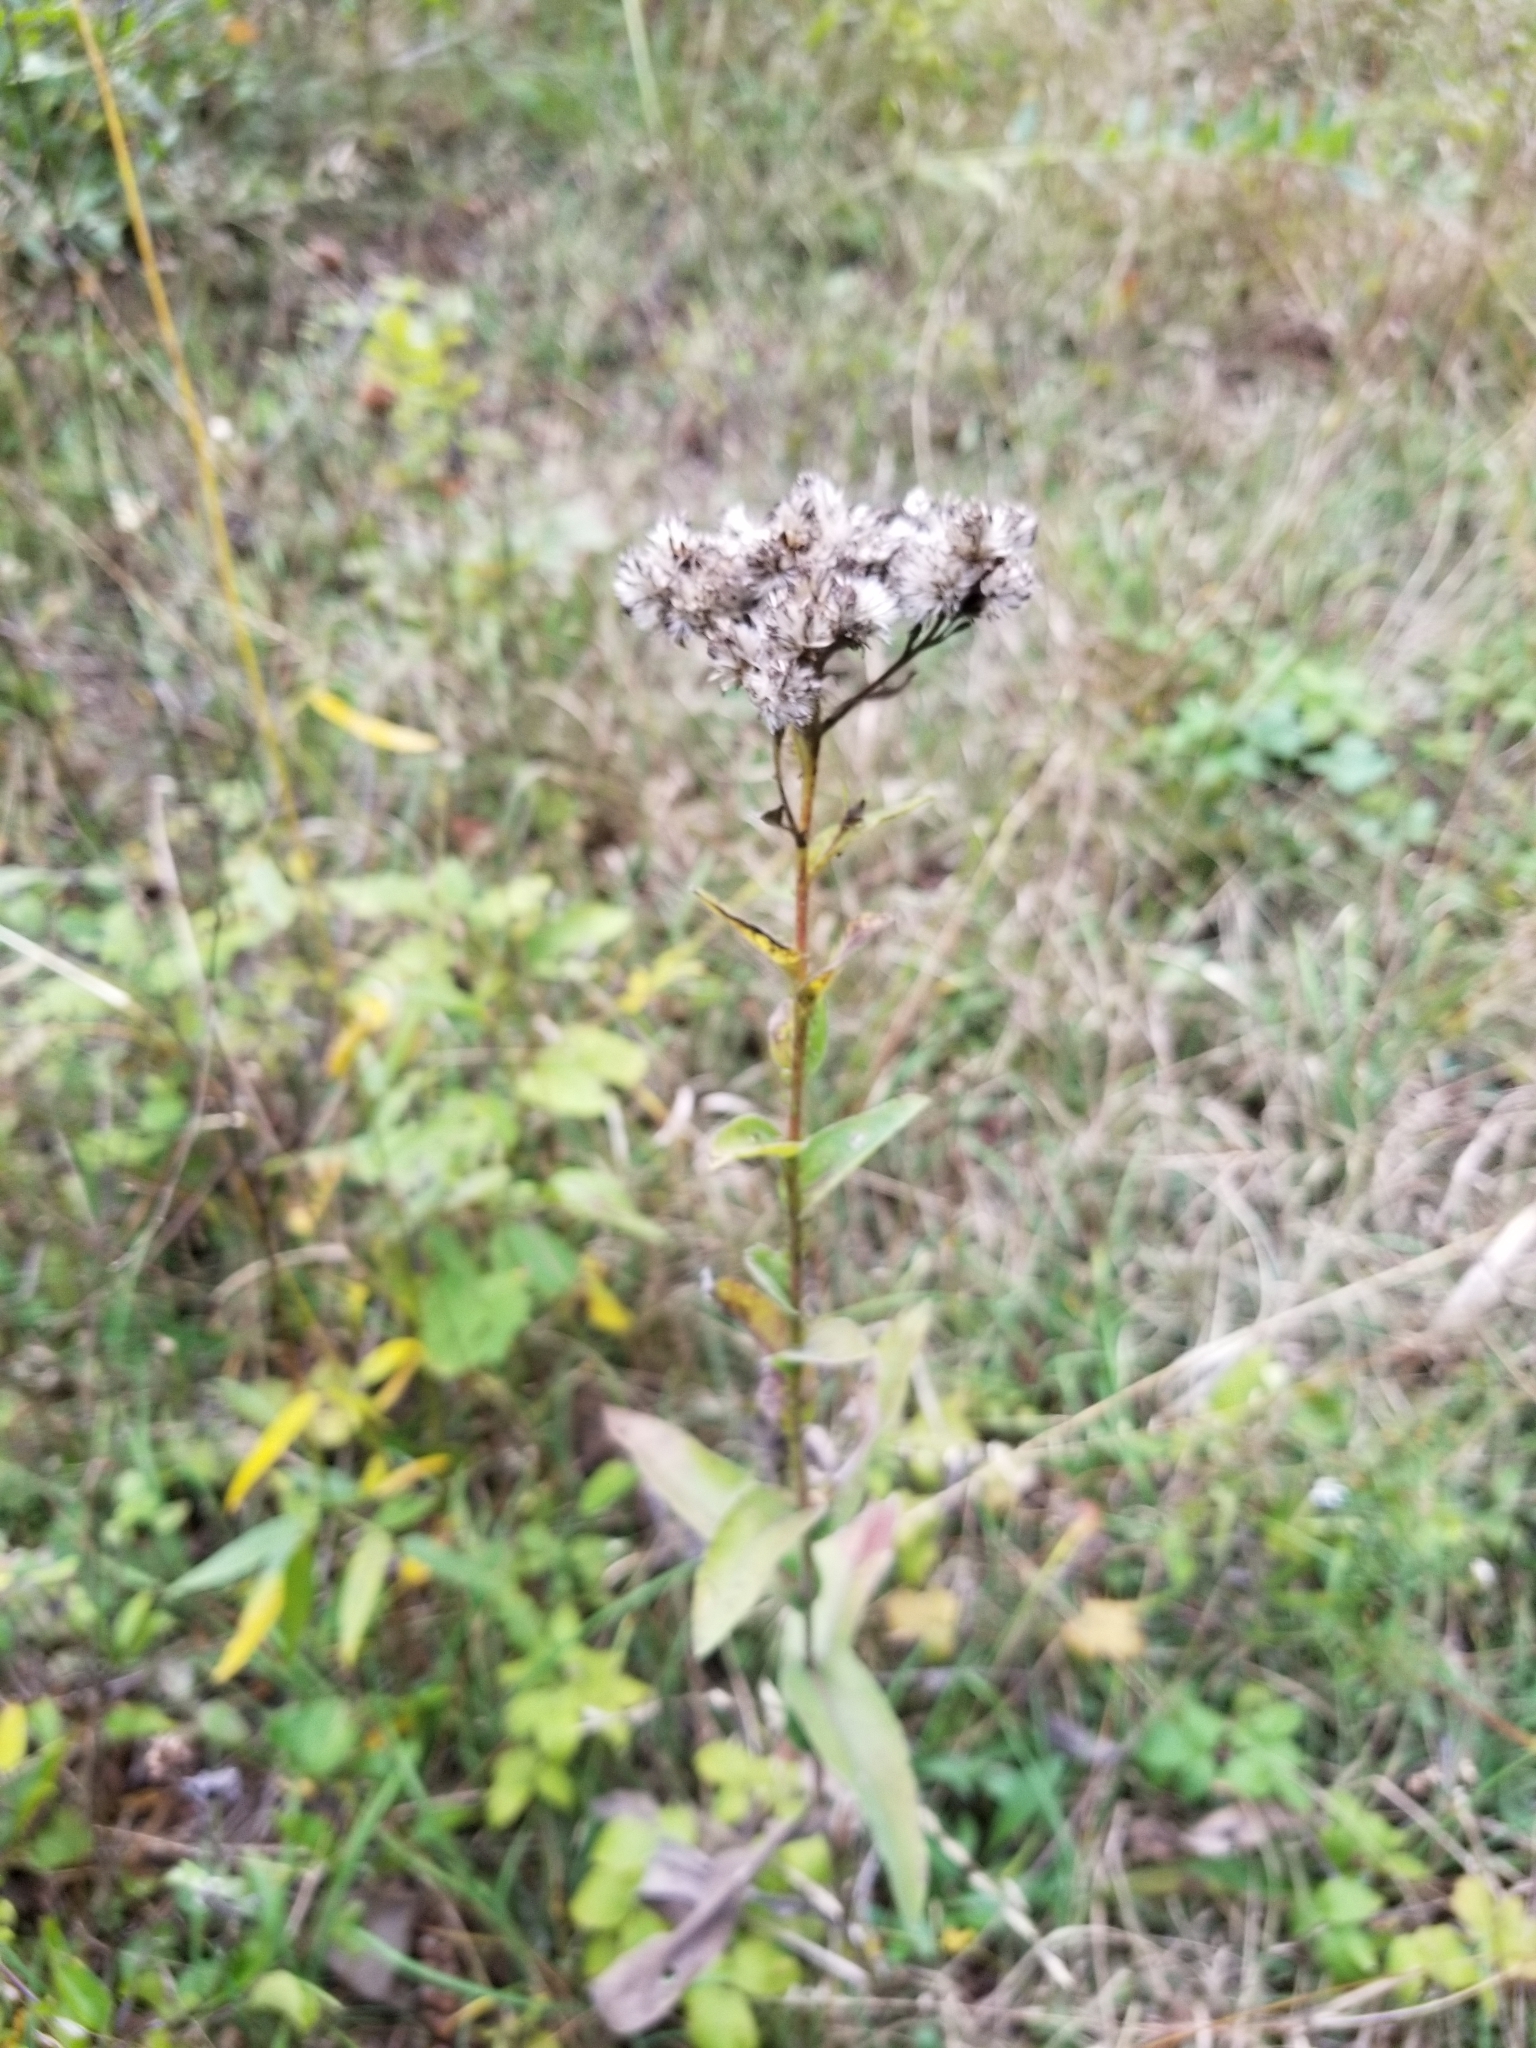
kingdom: Plantae
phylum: Tracheophyta
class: Magnoliopsida
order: Asterales
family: Asteraceae
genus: Solidago
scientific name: Solidago rigida
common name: Rigid goldenrod
